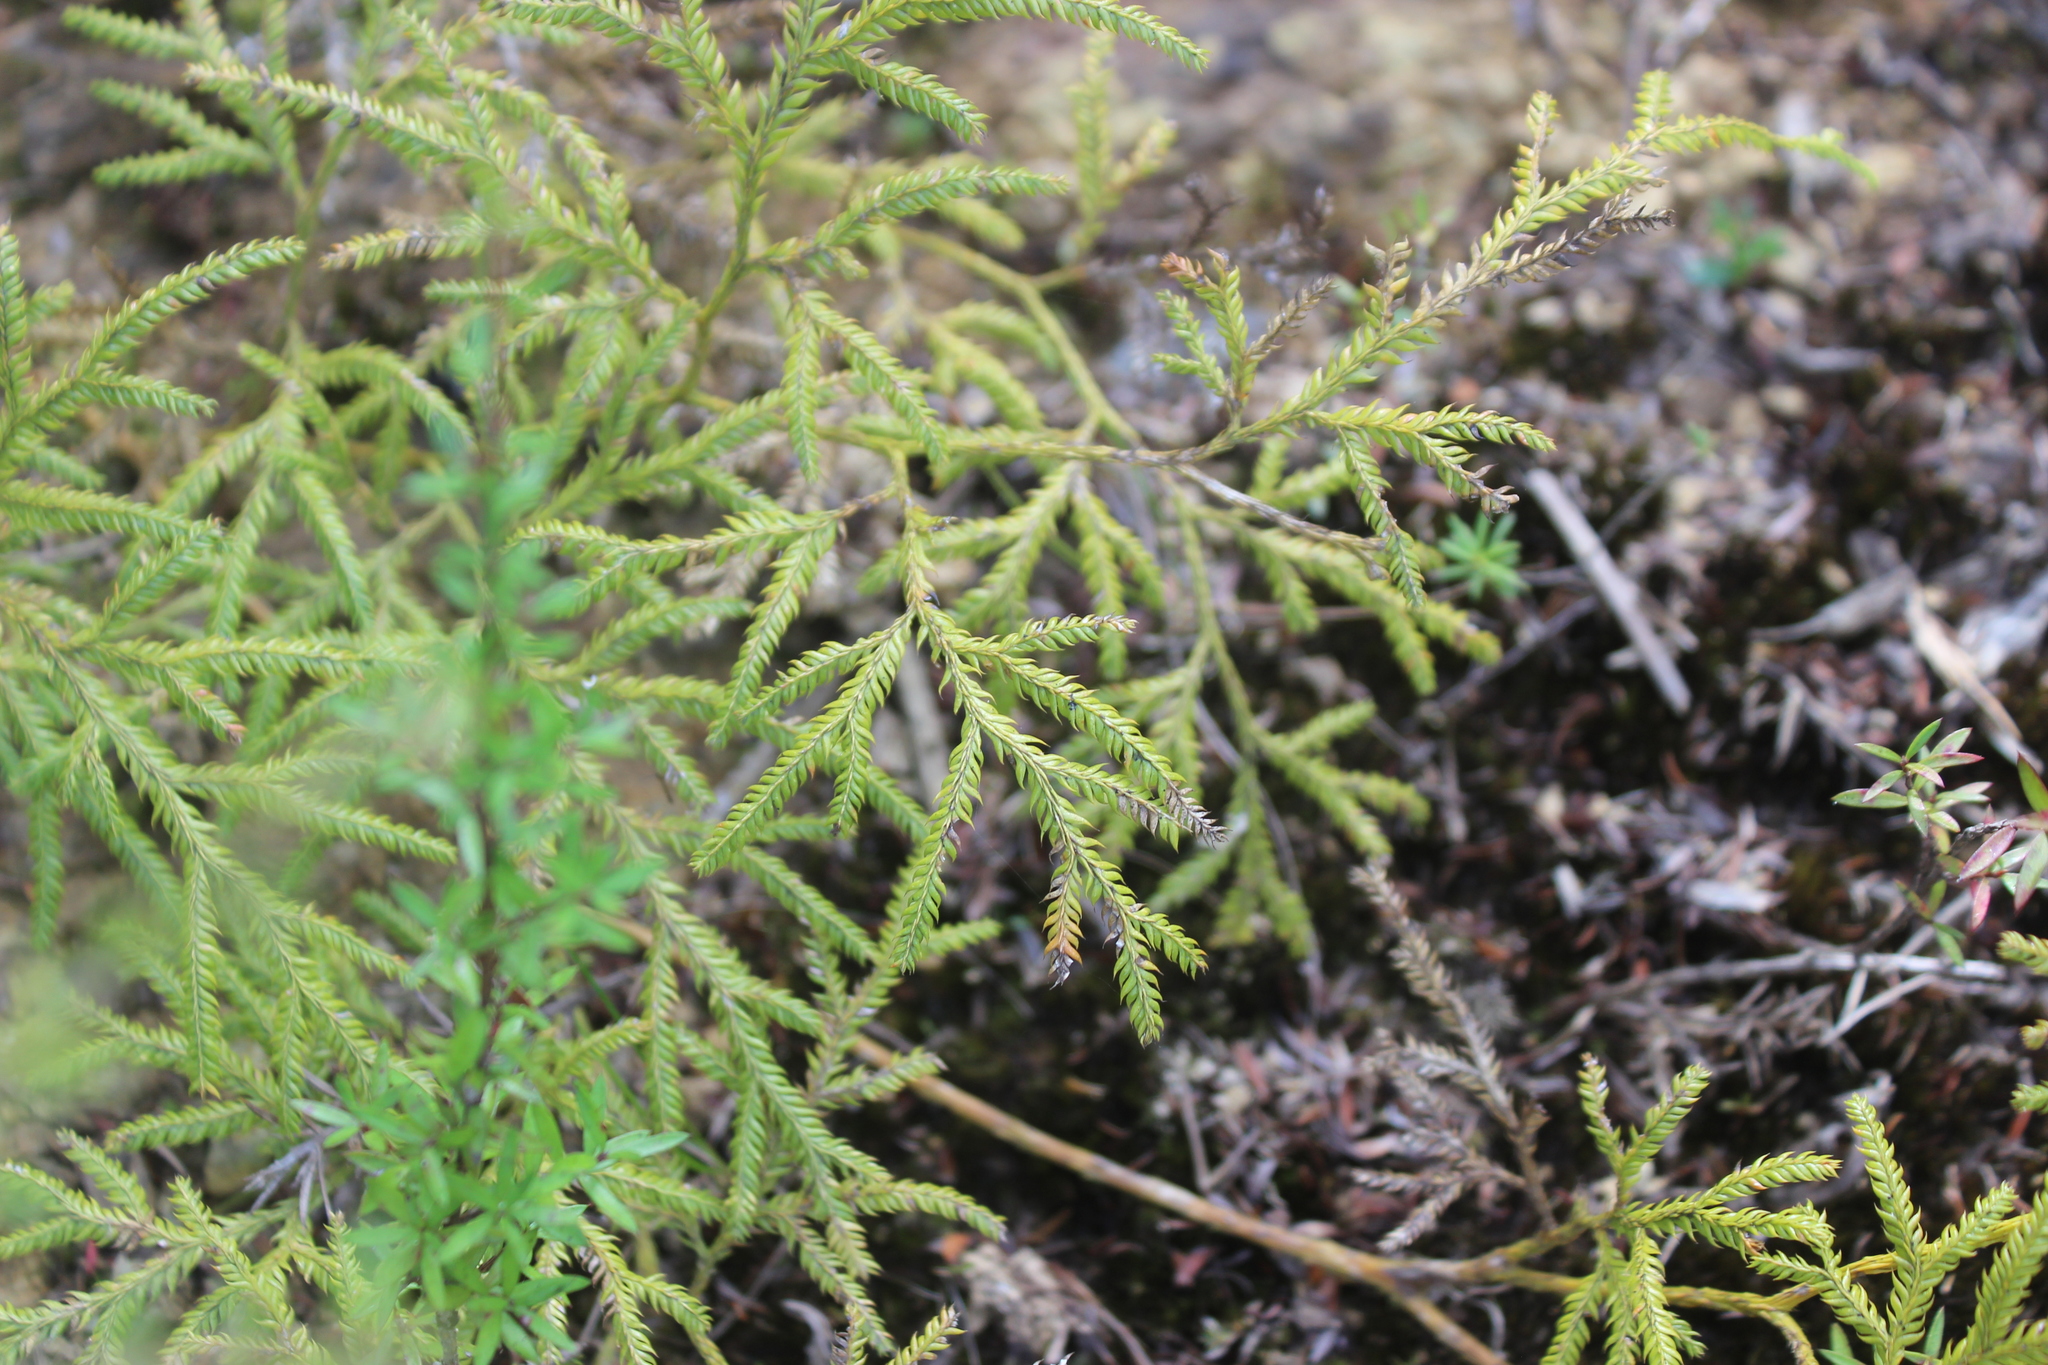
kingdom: Plantae
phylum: Tracheophyta
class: Lycopodiopsida
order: Lycopodiales
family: Lycopodiaceae
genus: Lycopodium
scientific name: Lycopodium volubile
